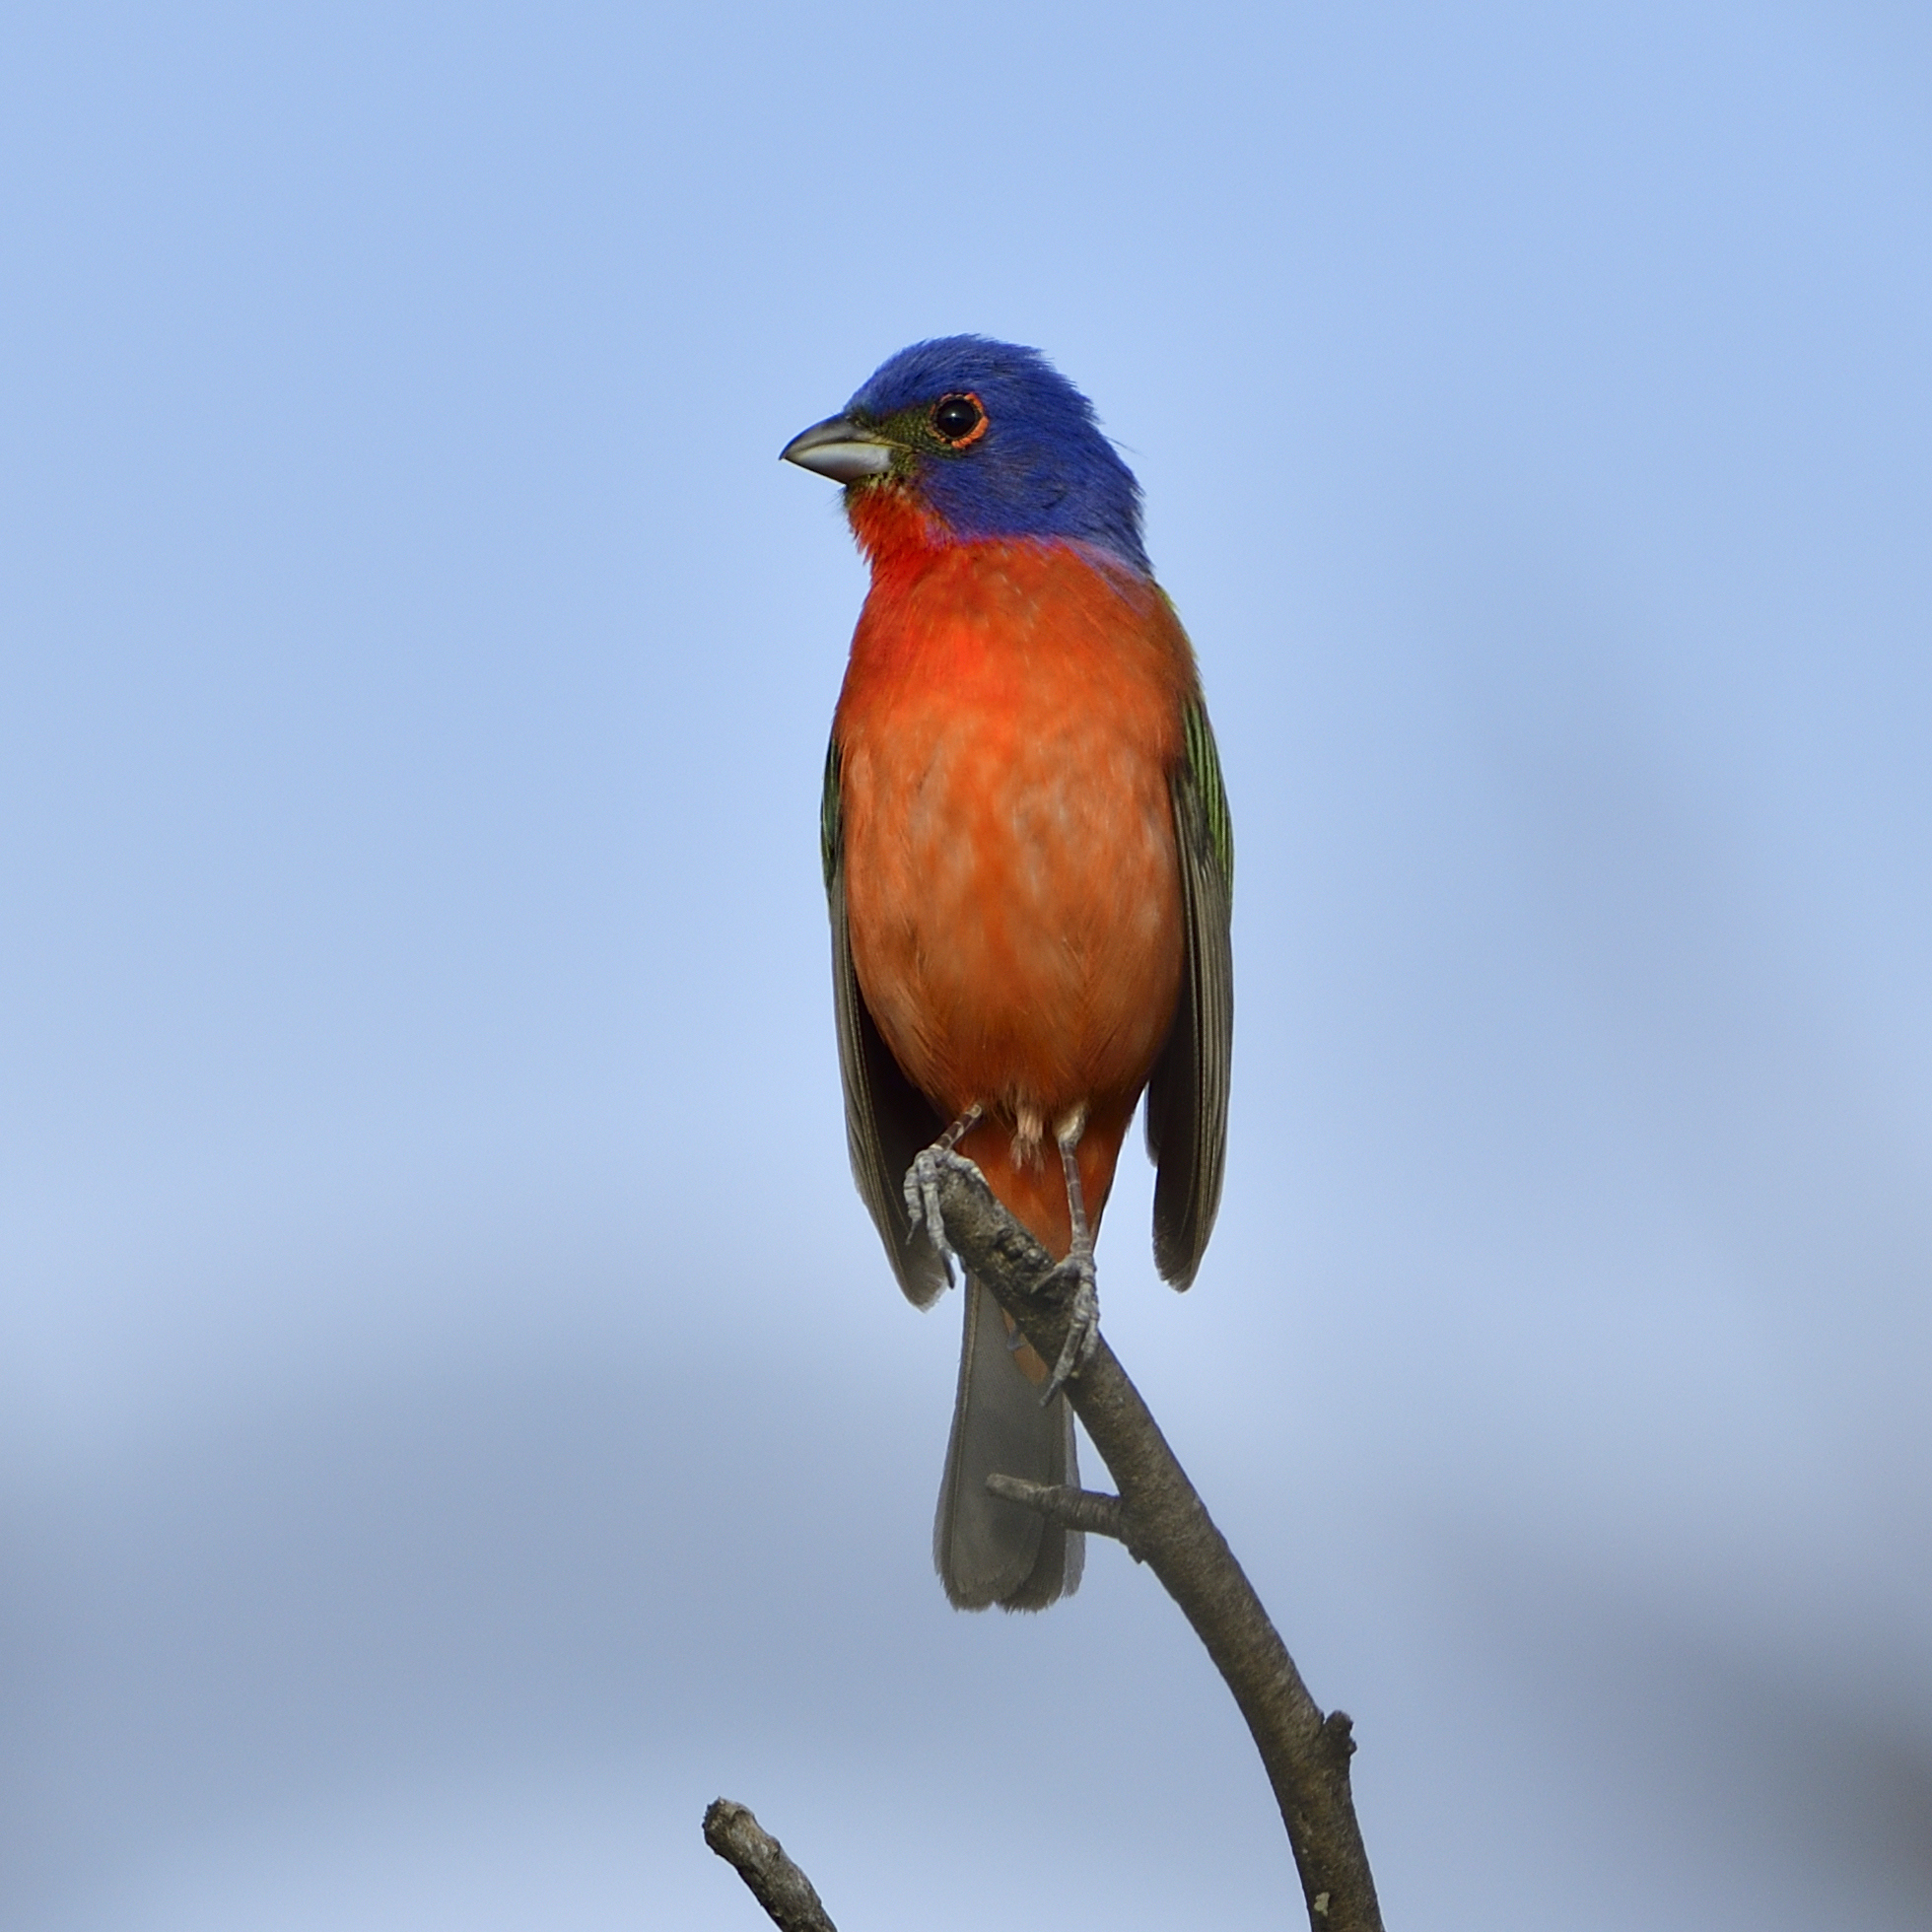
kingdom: Animalia
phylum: Chordata
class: Aves
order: Passeriformes
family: Cardinalidae
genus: Passerina
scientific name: Passerina ciris
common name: Painted bunting
